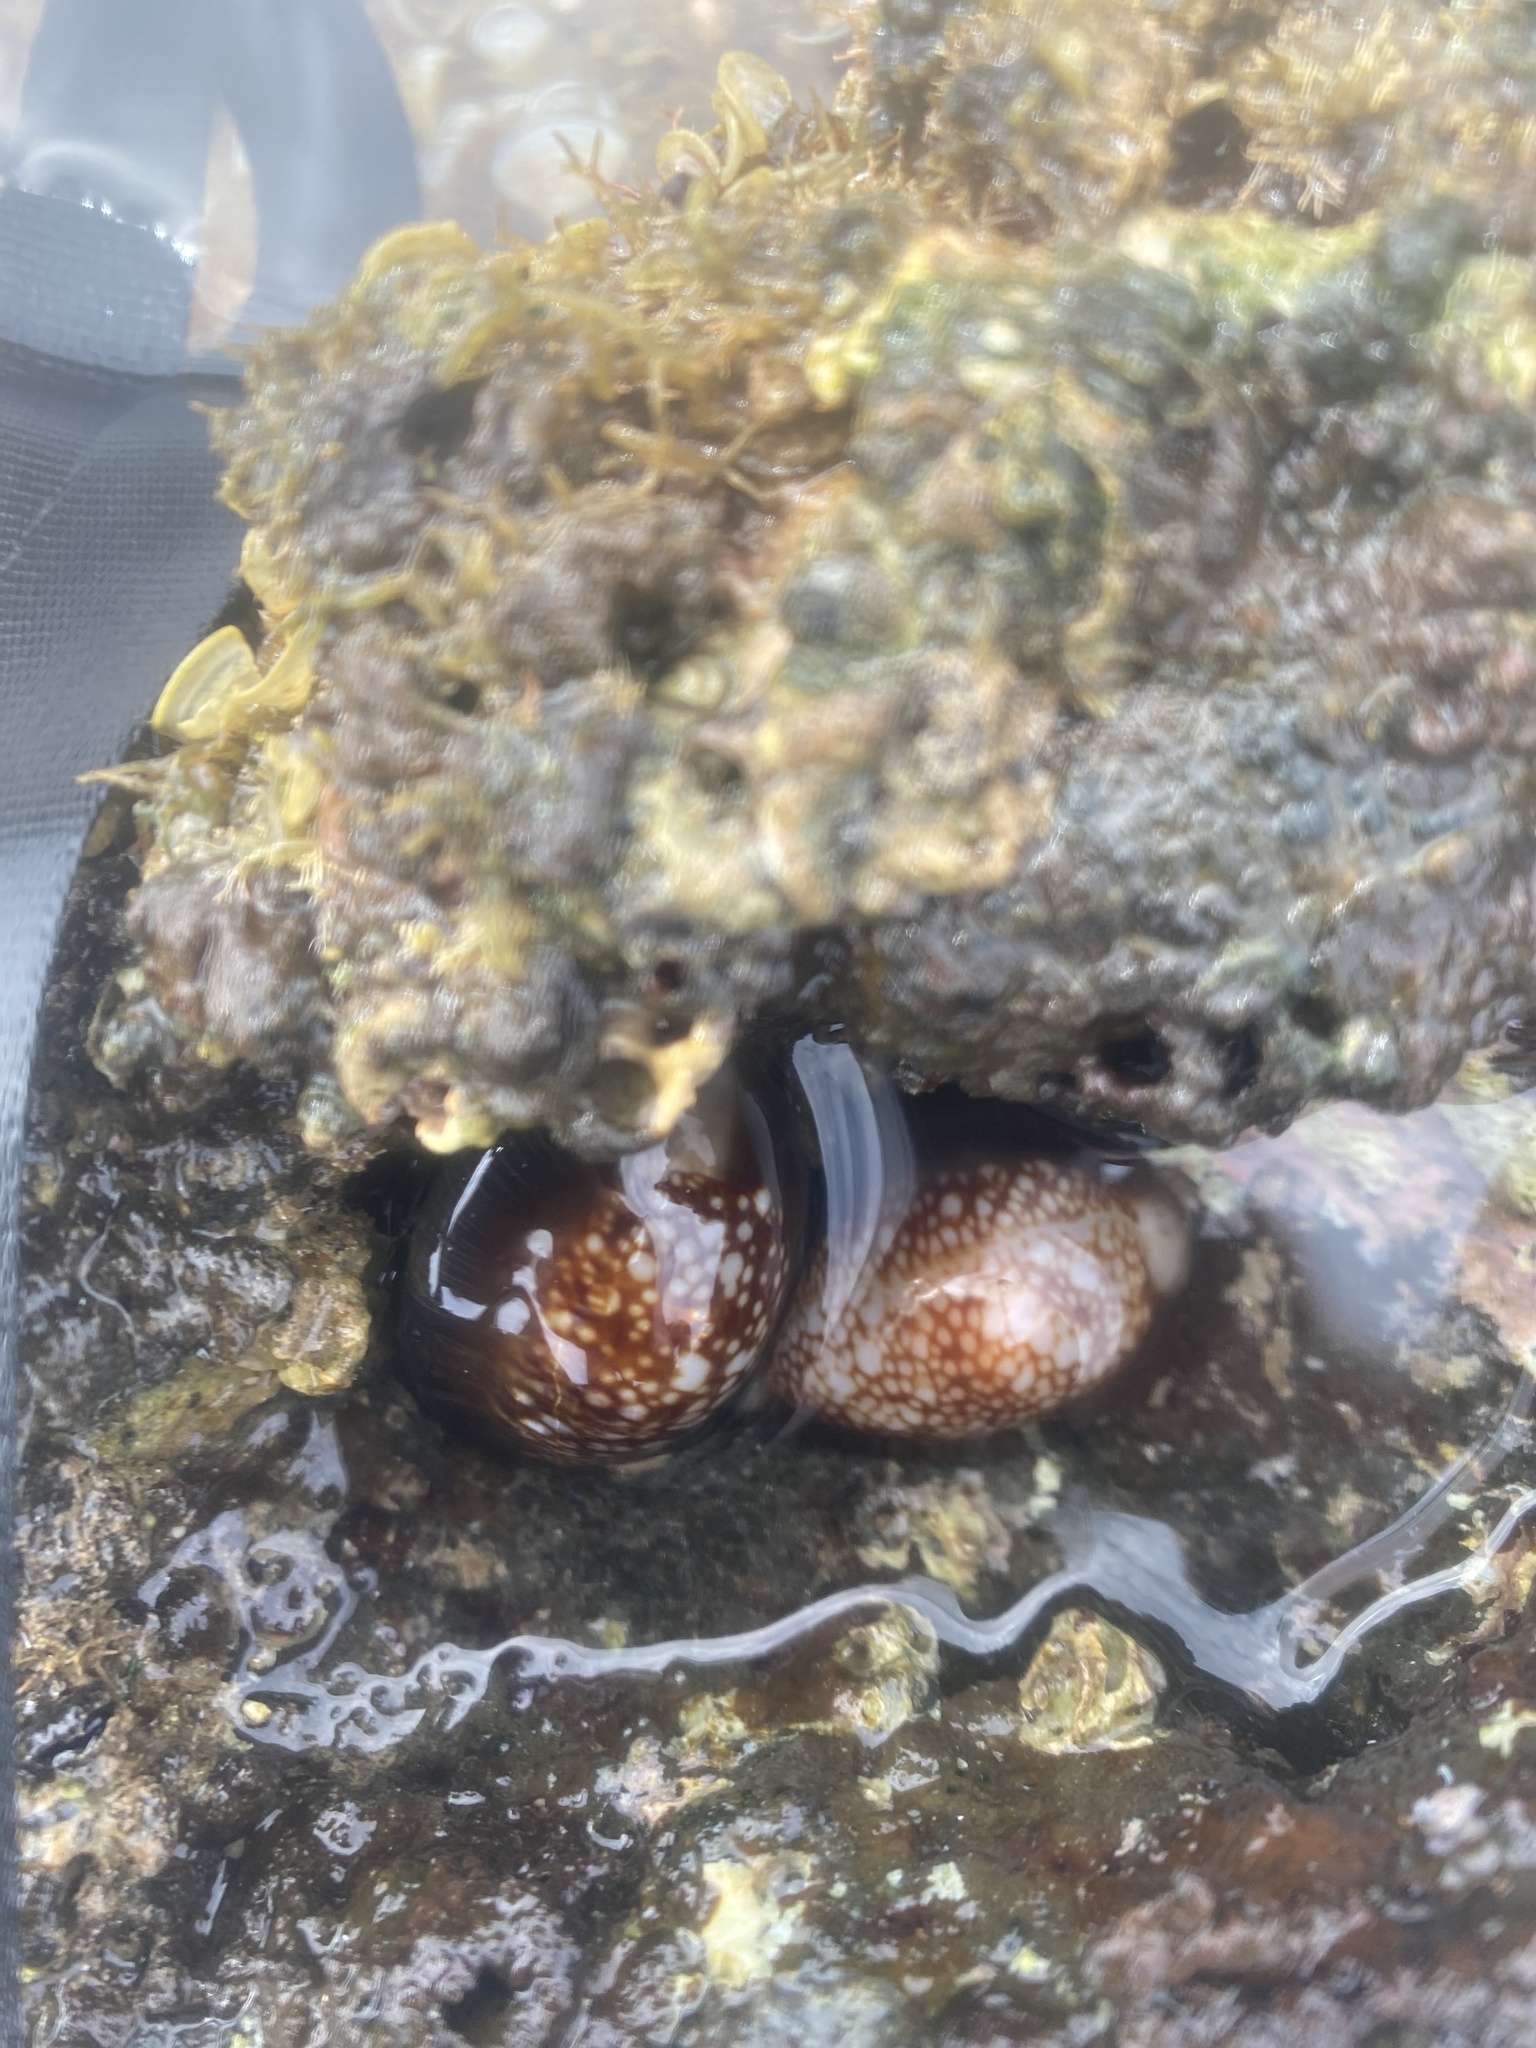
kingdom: Animalia
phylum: Mollusca
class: Gastropoda
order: Littorinimorpha
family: Cypraeidae
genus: Monetaria
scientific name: Monetaria caputophidii
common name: Snake's head cowry
